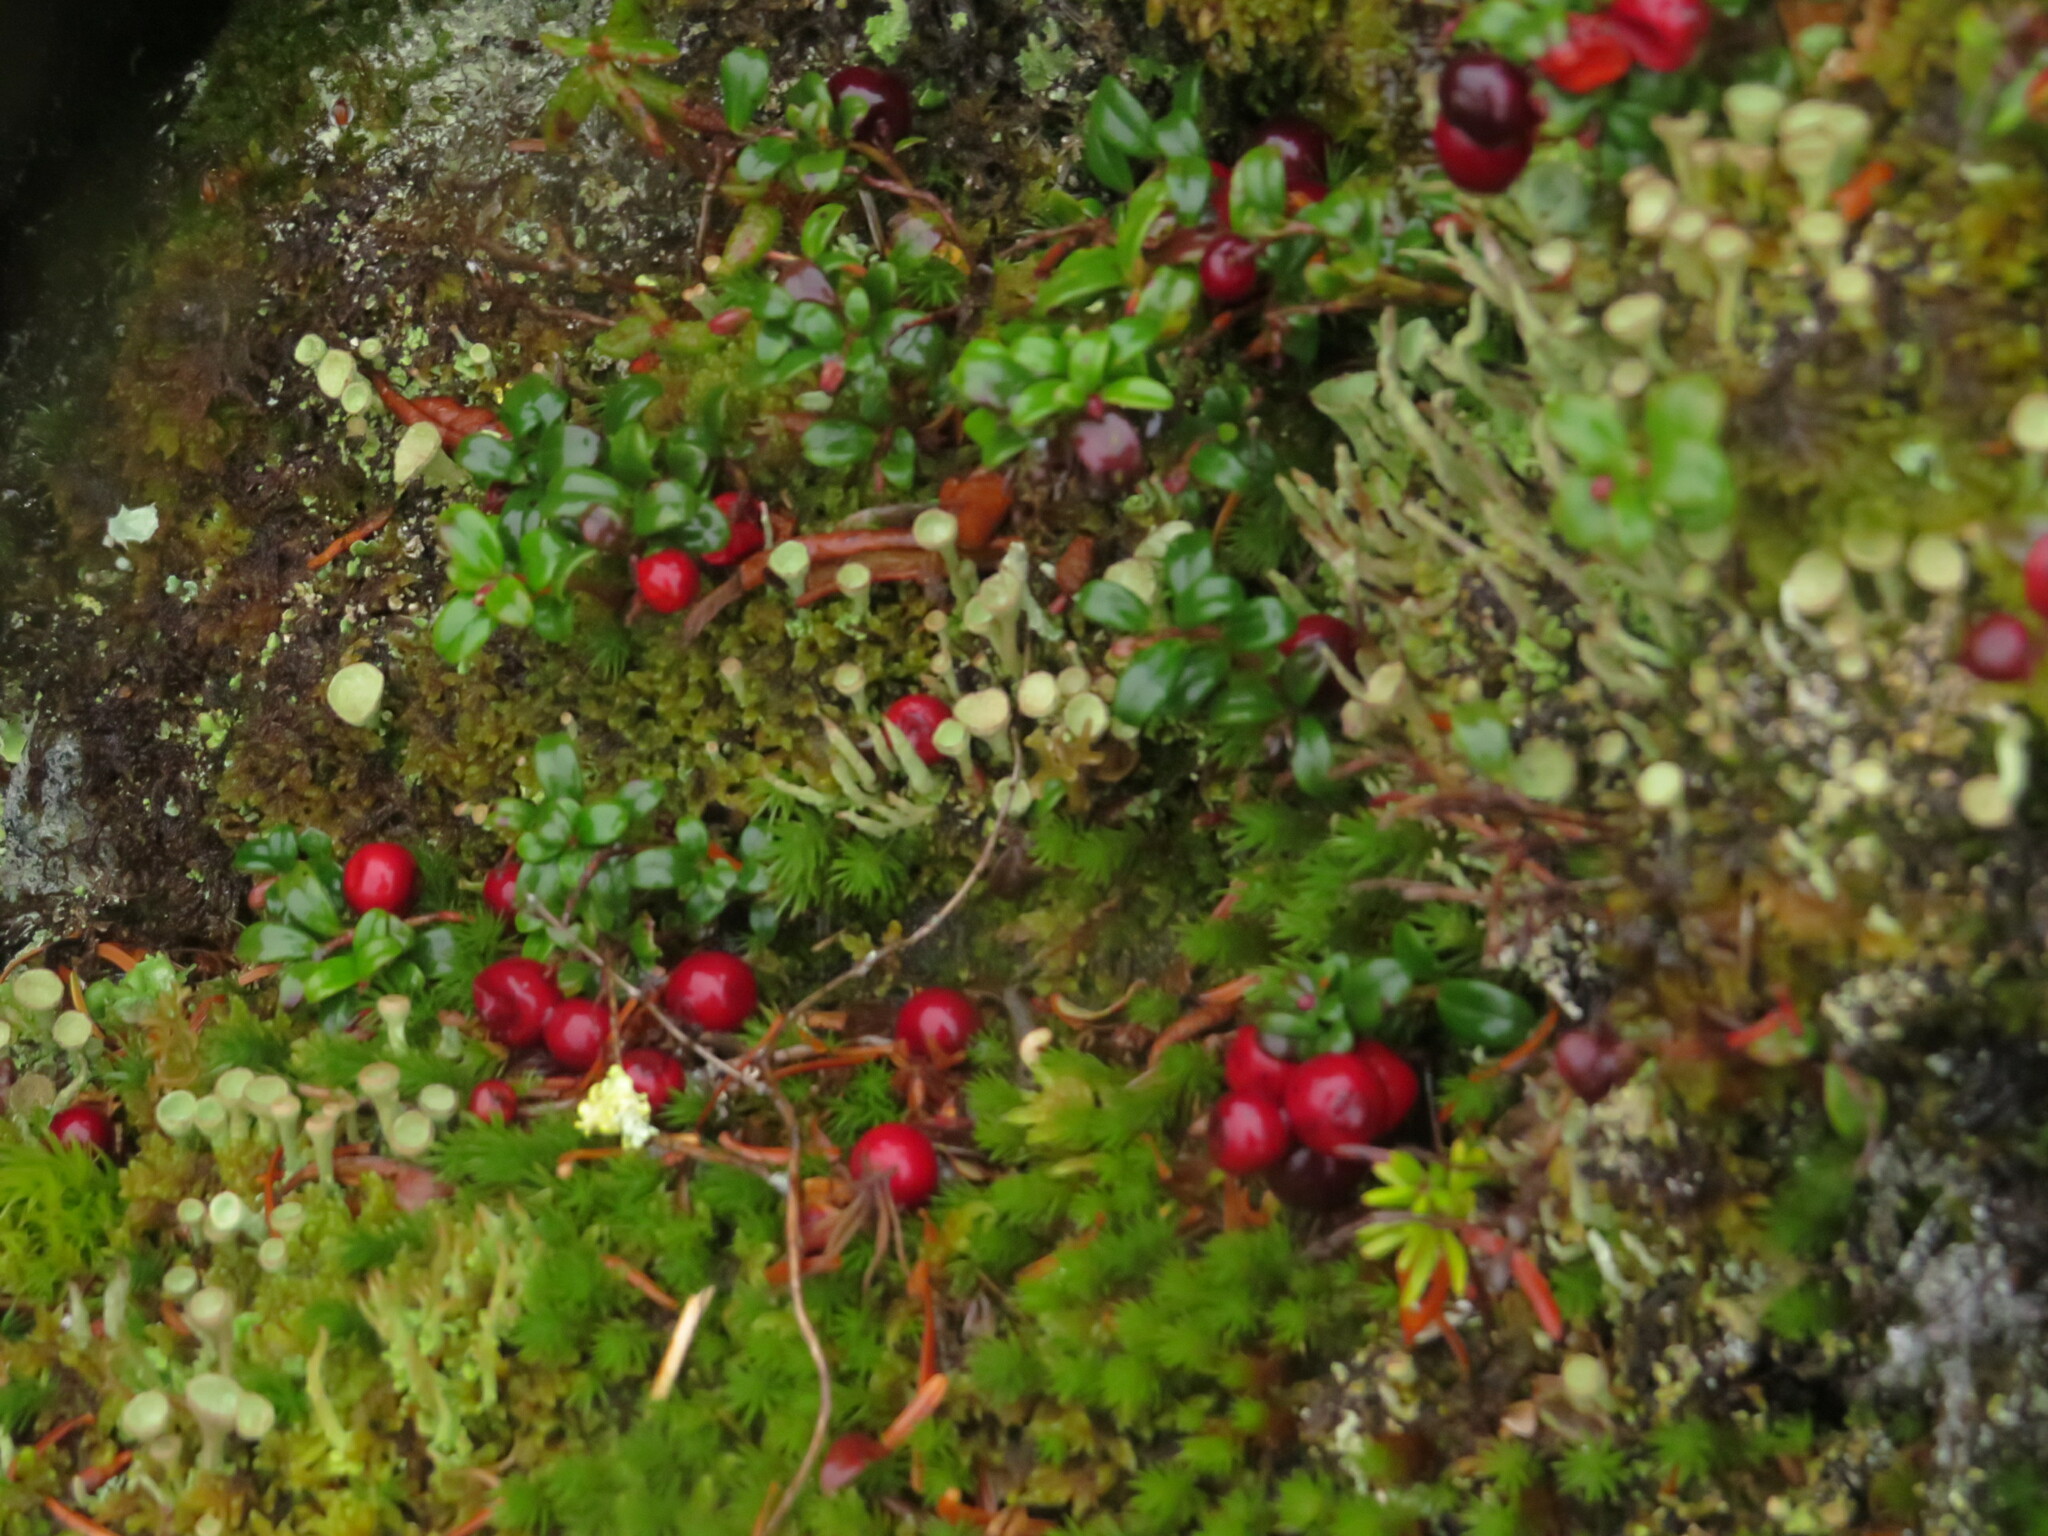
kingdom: Plantae
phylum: Tracheophyta
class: Magnoliopsida
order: Ericales
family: Ericaceae
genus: Vaccinium
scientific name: Vaccinium vitis-idaea
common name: Cowberry
